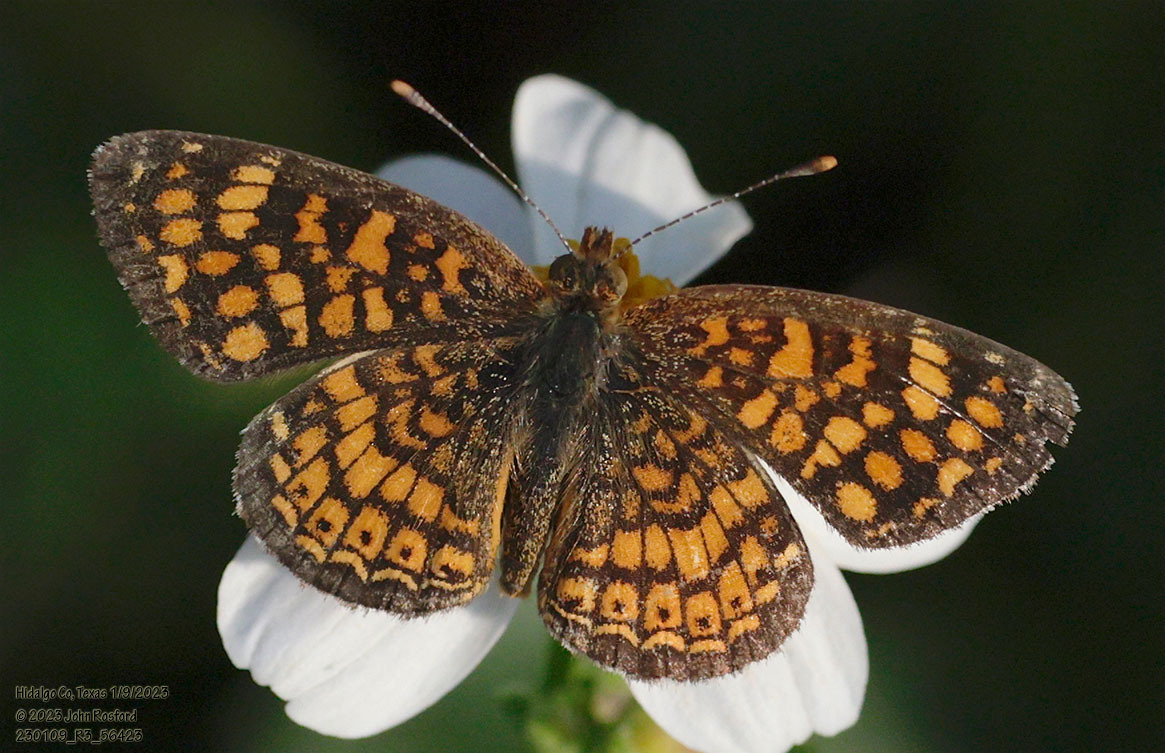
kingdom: Animalia
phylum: Arthropoda
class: Insecta
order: Lepidoptera
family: Nymphalidae
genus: Phyciodes
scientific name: Phyciodes vesta
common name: Vesta crescent
